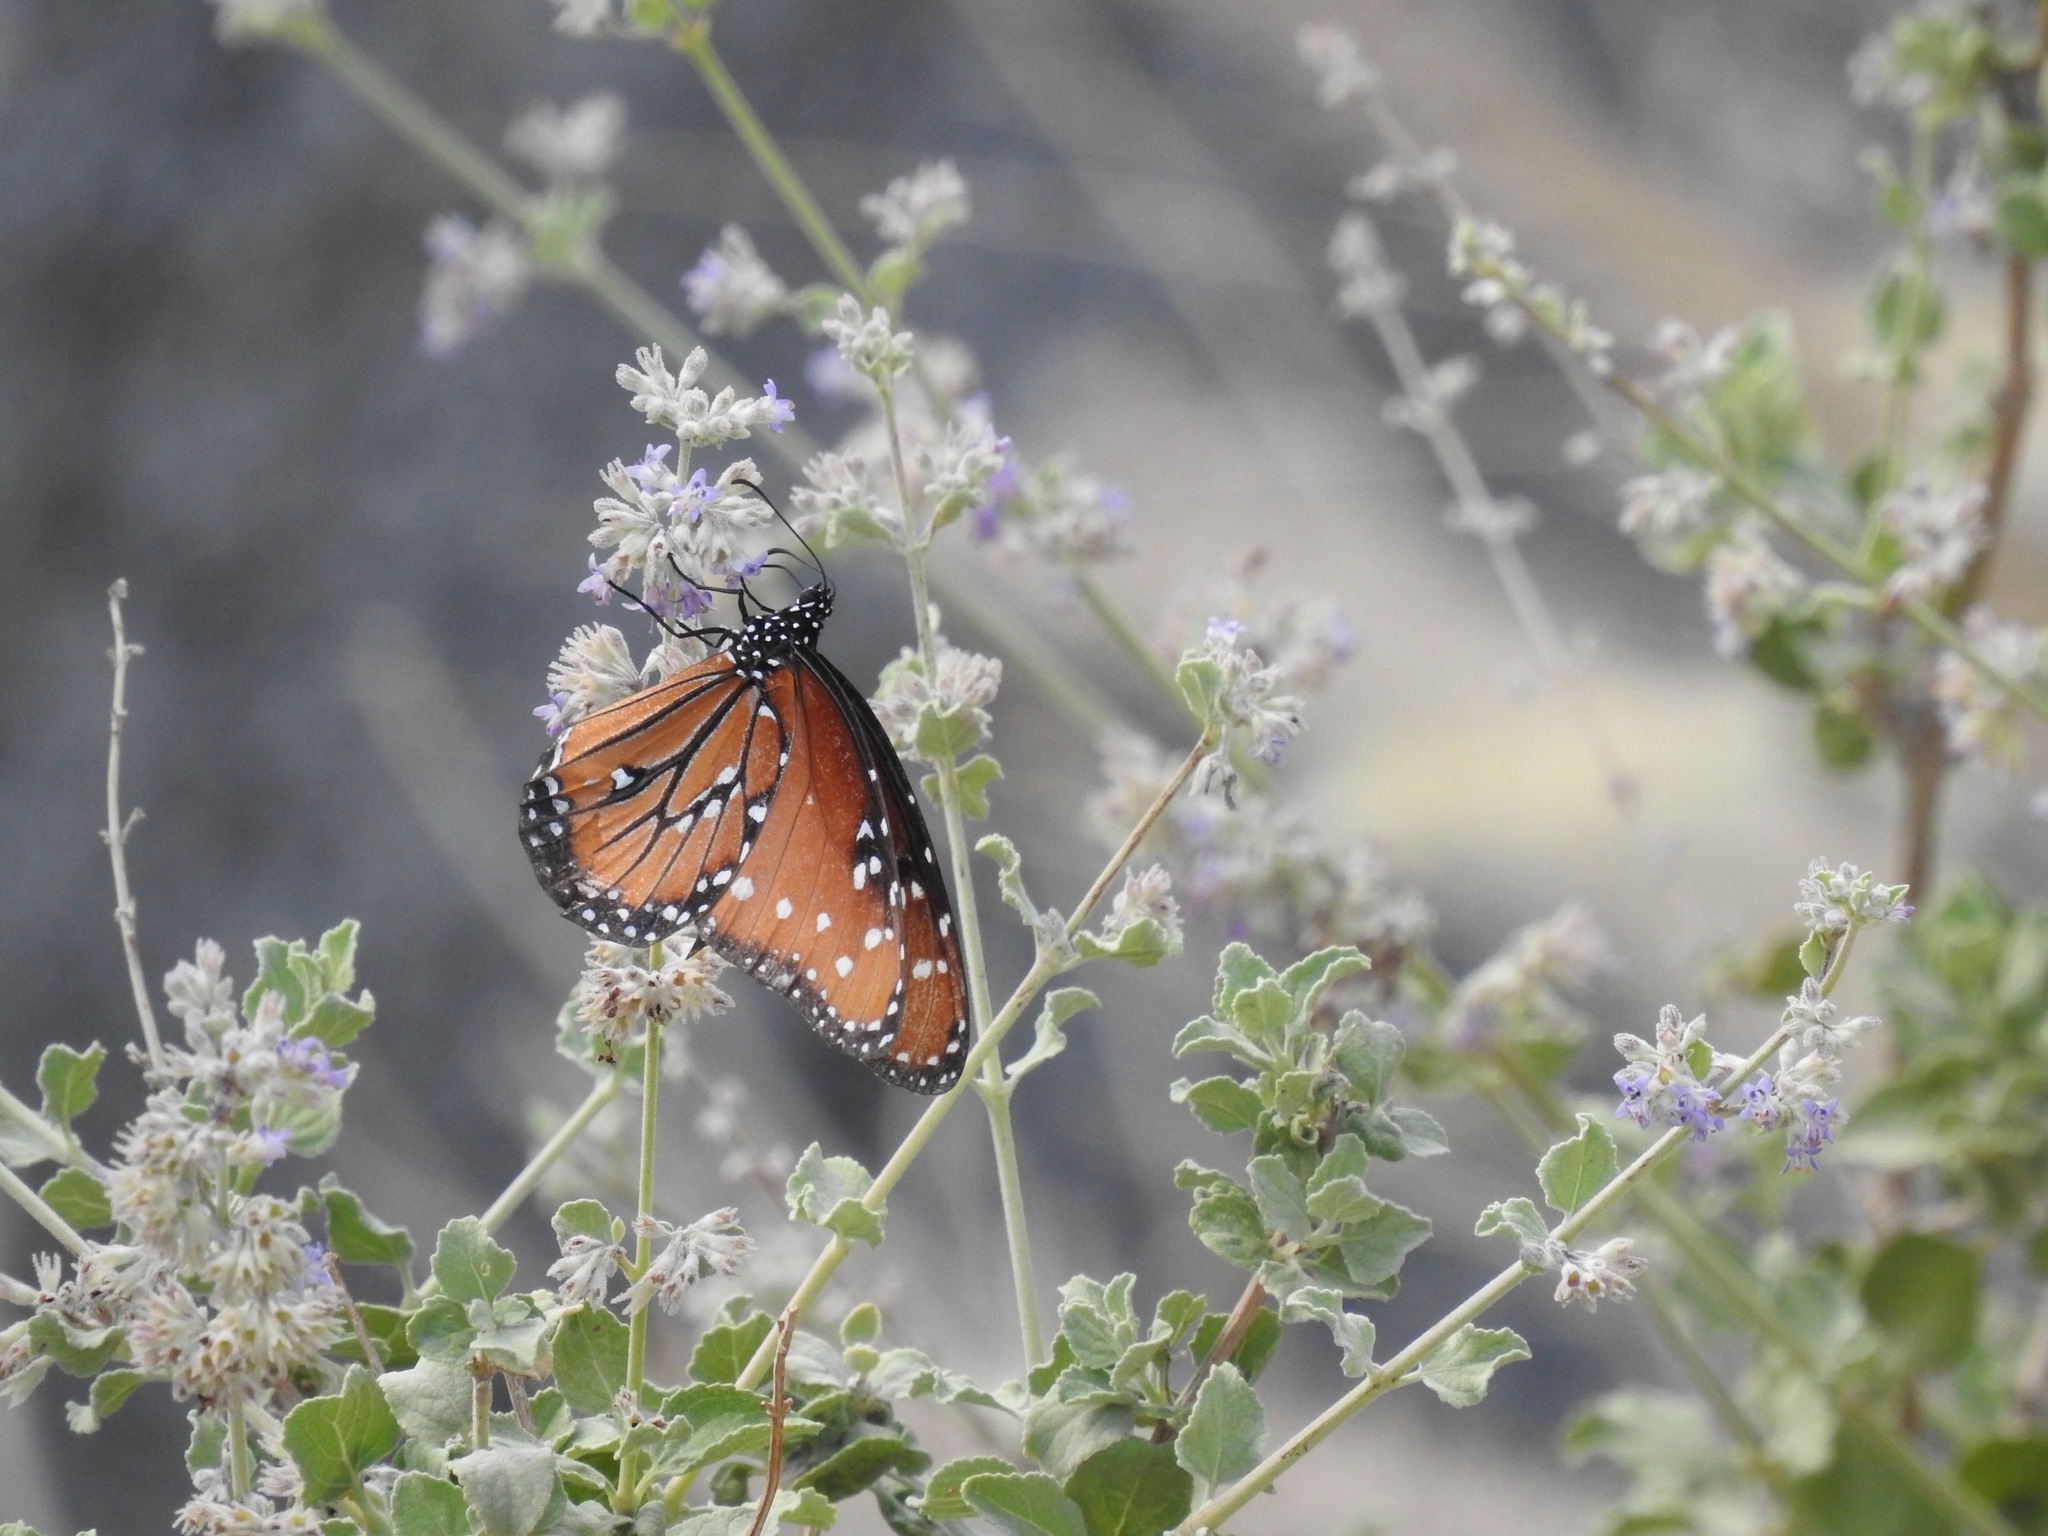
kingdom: Animalia
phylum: Arthropoda
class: Insecta
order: Lepidoptera
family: Nymphalidae
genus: Danaus
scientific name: Danaus gilippus
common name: Queen
